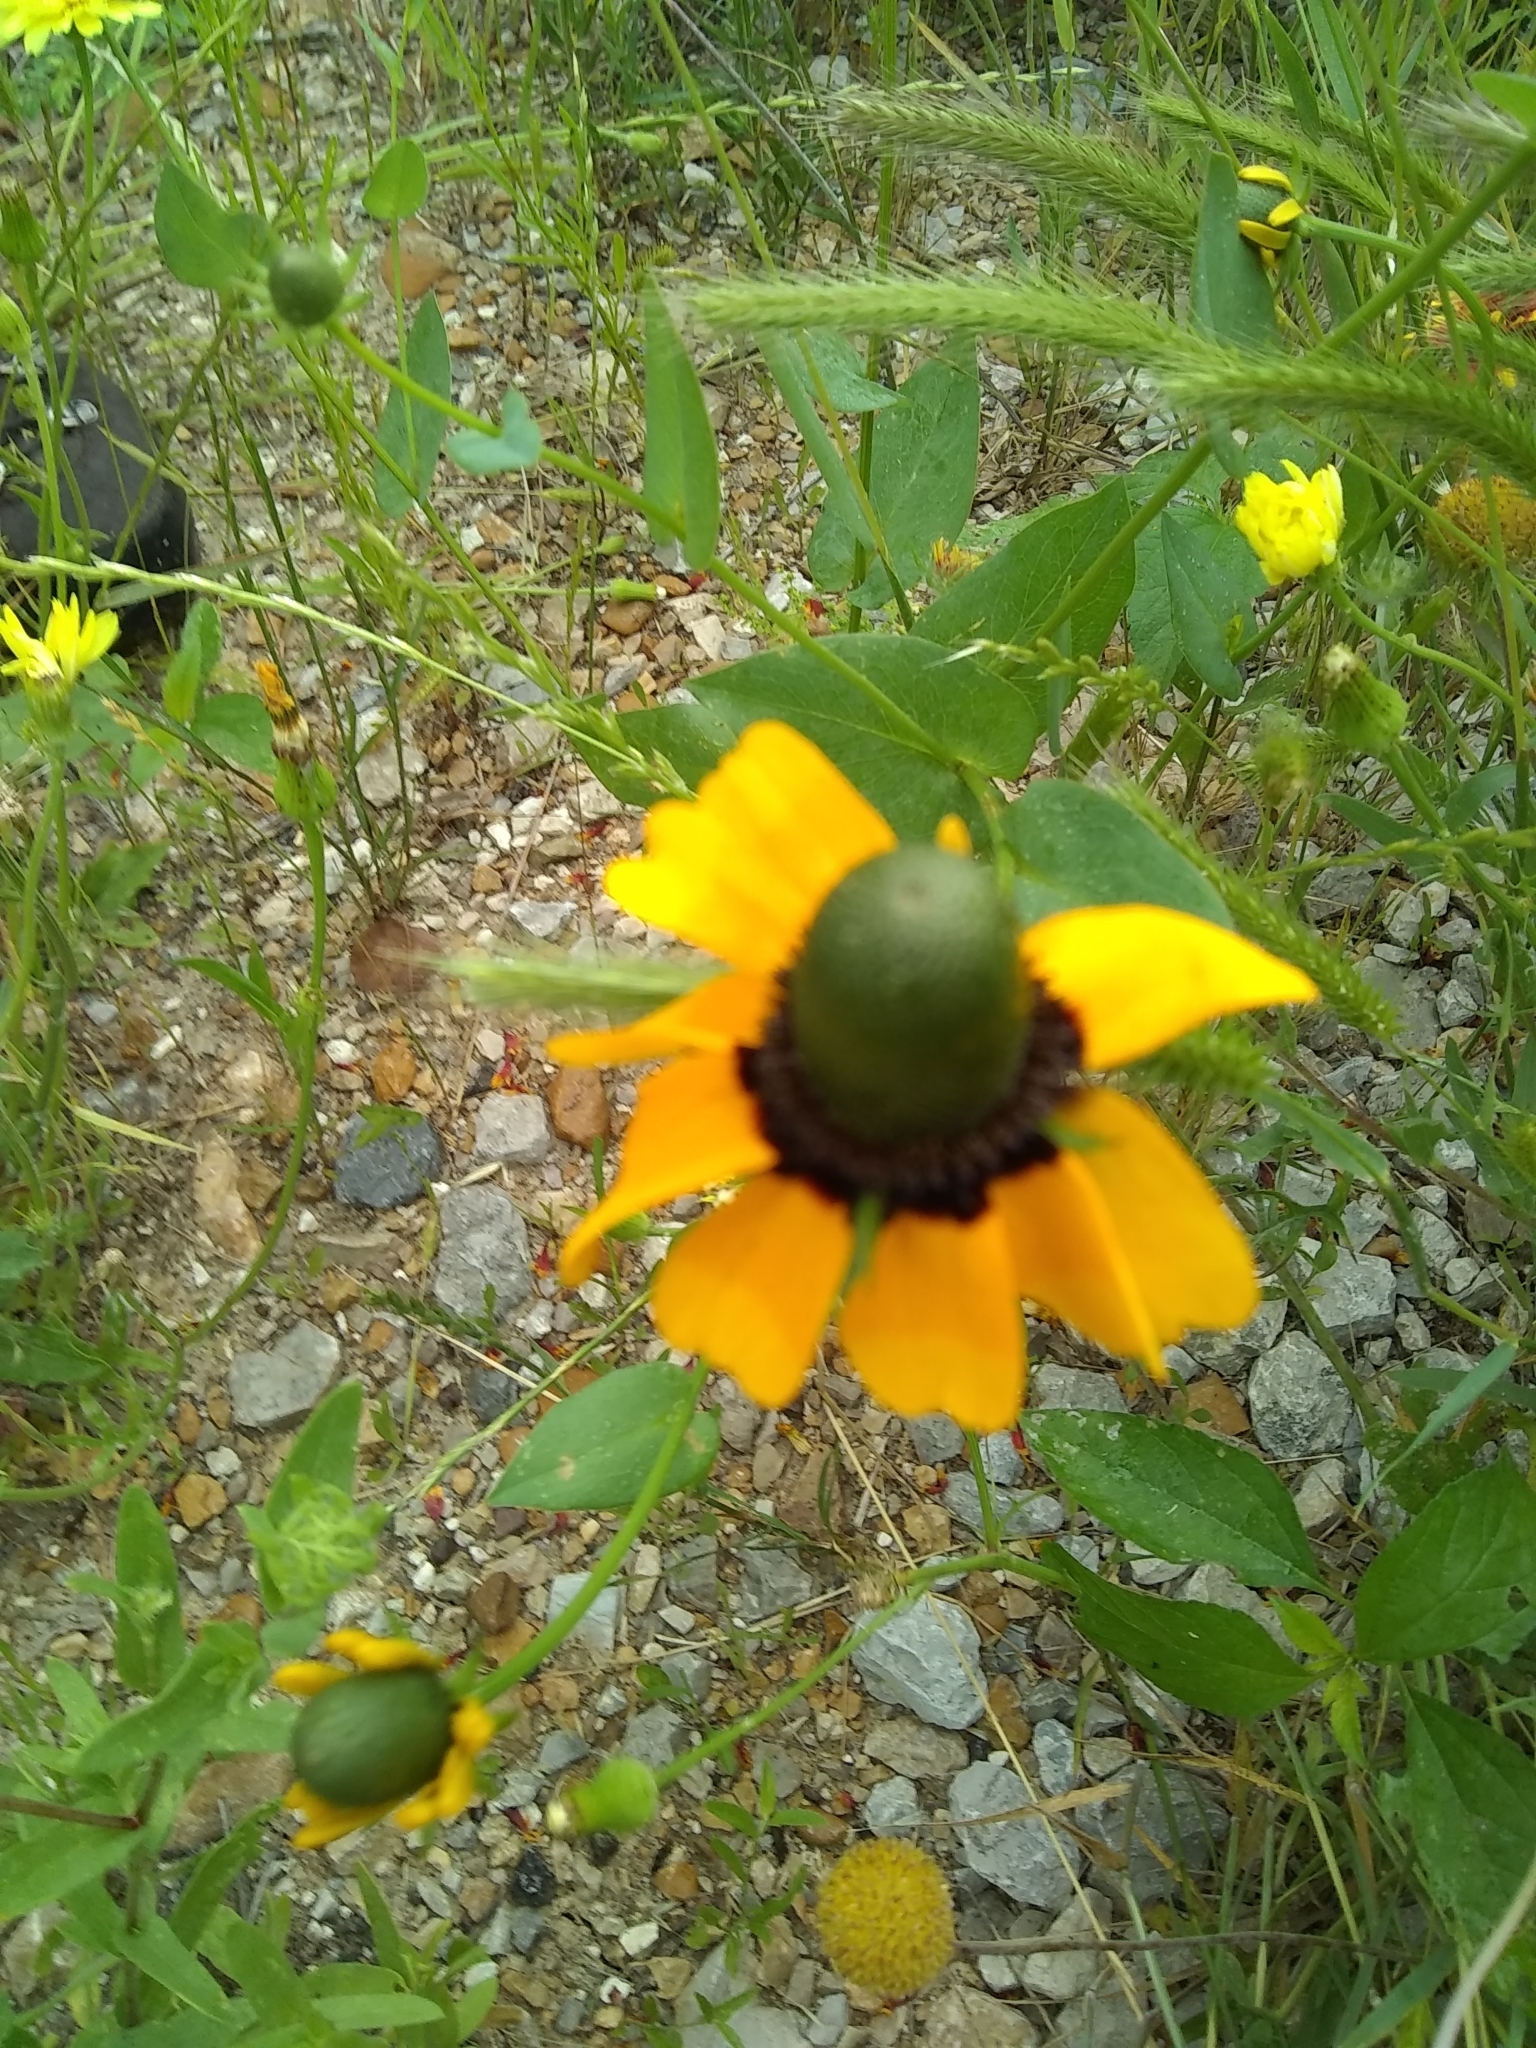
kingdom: Plantae
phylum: Tracheophyta
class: Magnoliopsida
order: Asterales
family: Asteraceae
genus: Rudbeckia
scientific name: Rudbeckia hirta
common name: Black-eyed-susan
